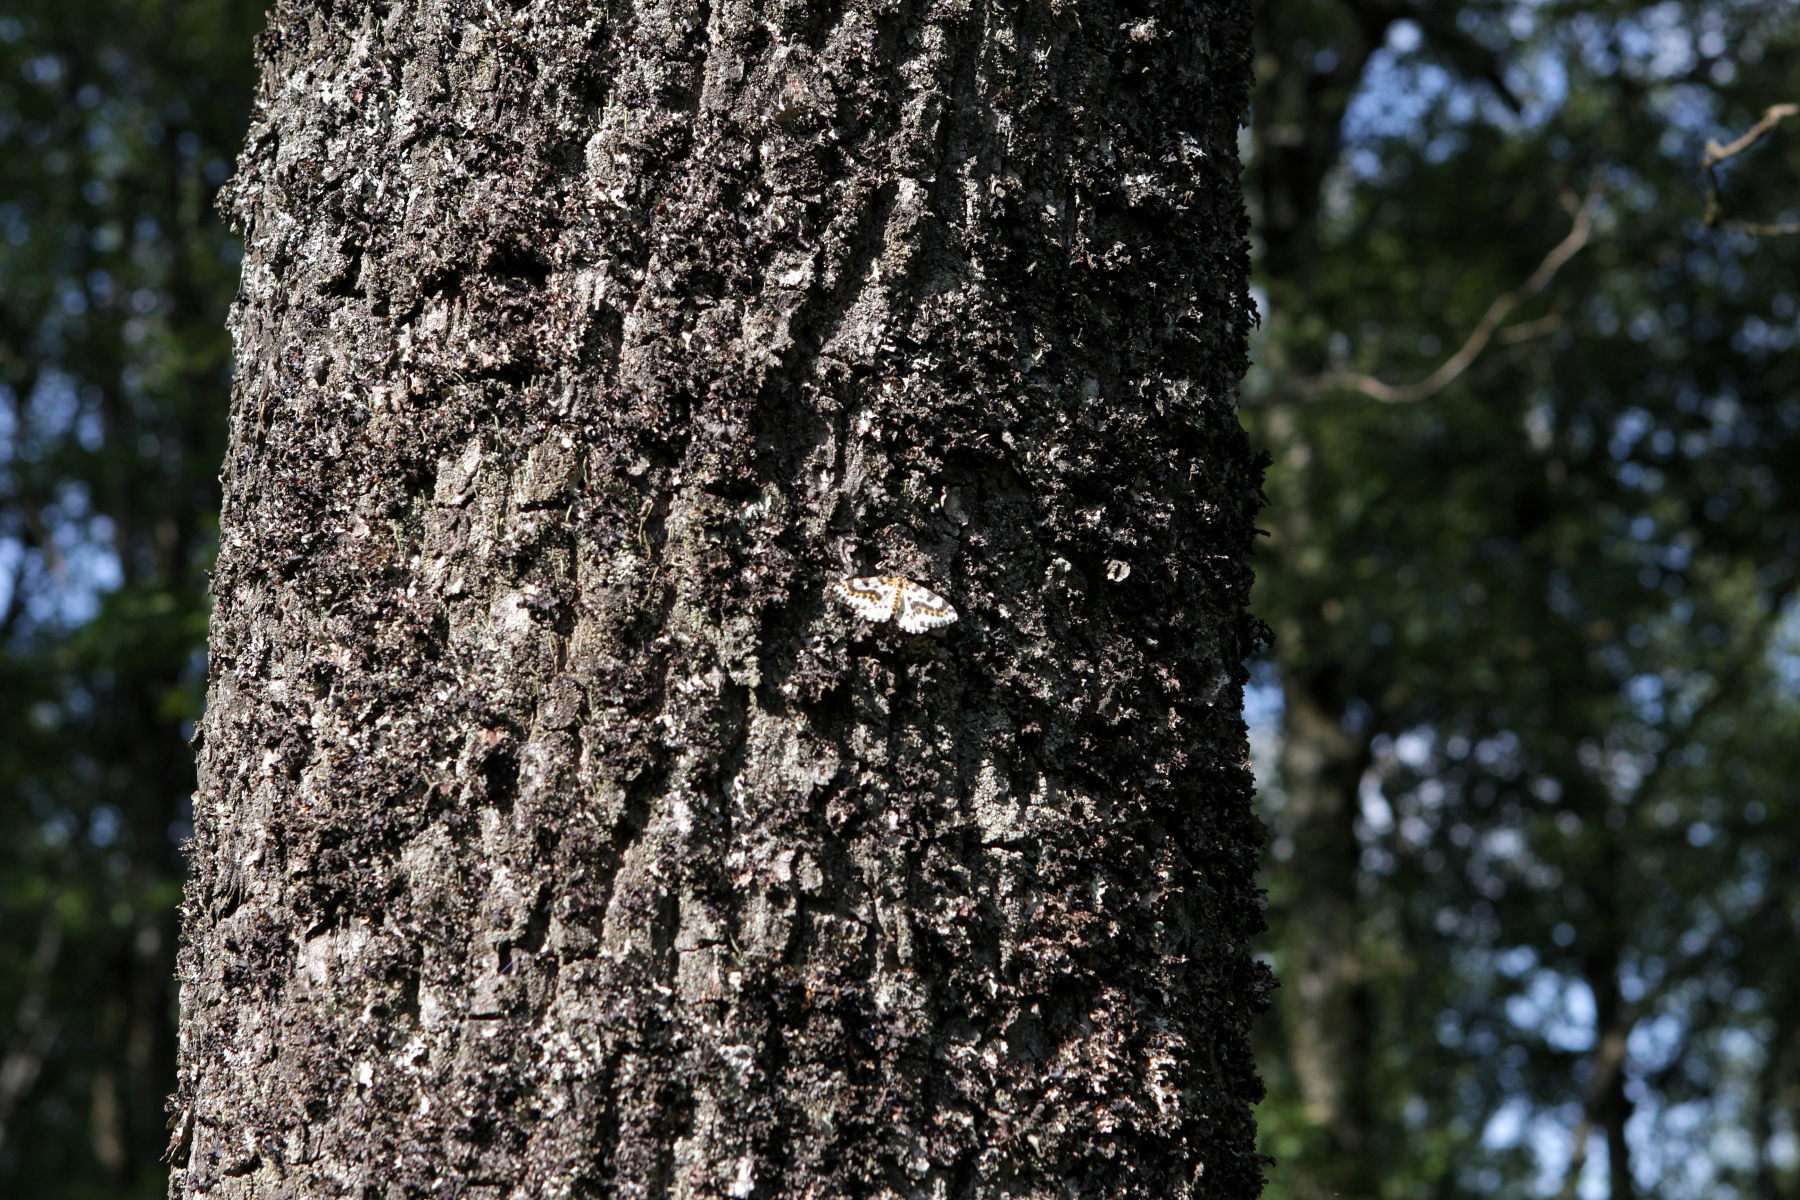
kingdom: Animalia
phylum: Arthropoda
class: Insecta
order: Lepidoptera
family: Geometridae
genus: Abraxas
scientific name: Abraxas grossulariata
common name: Magpie
